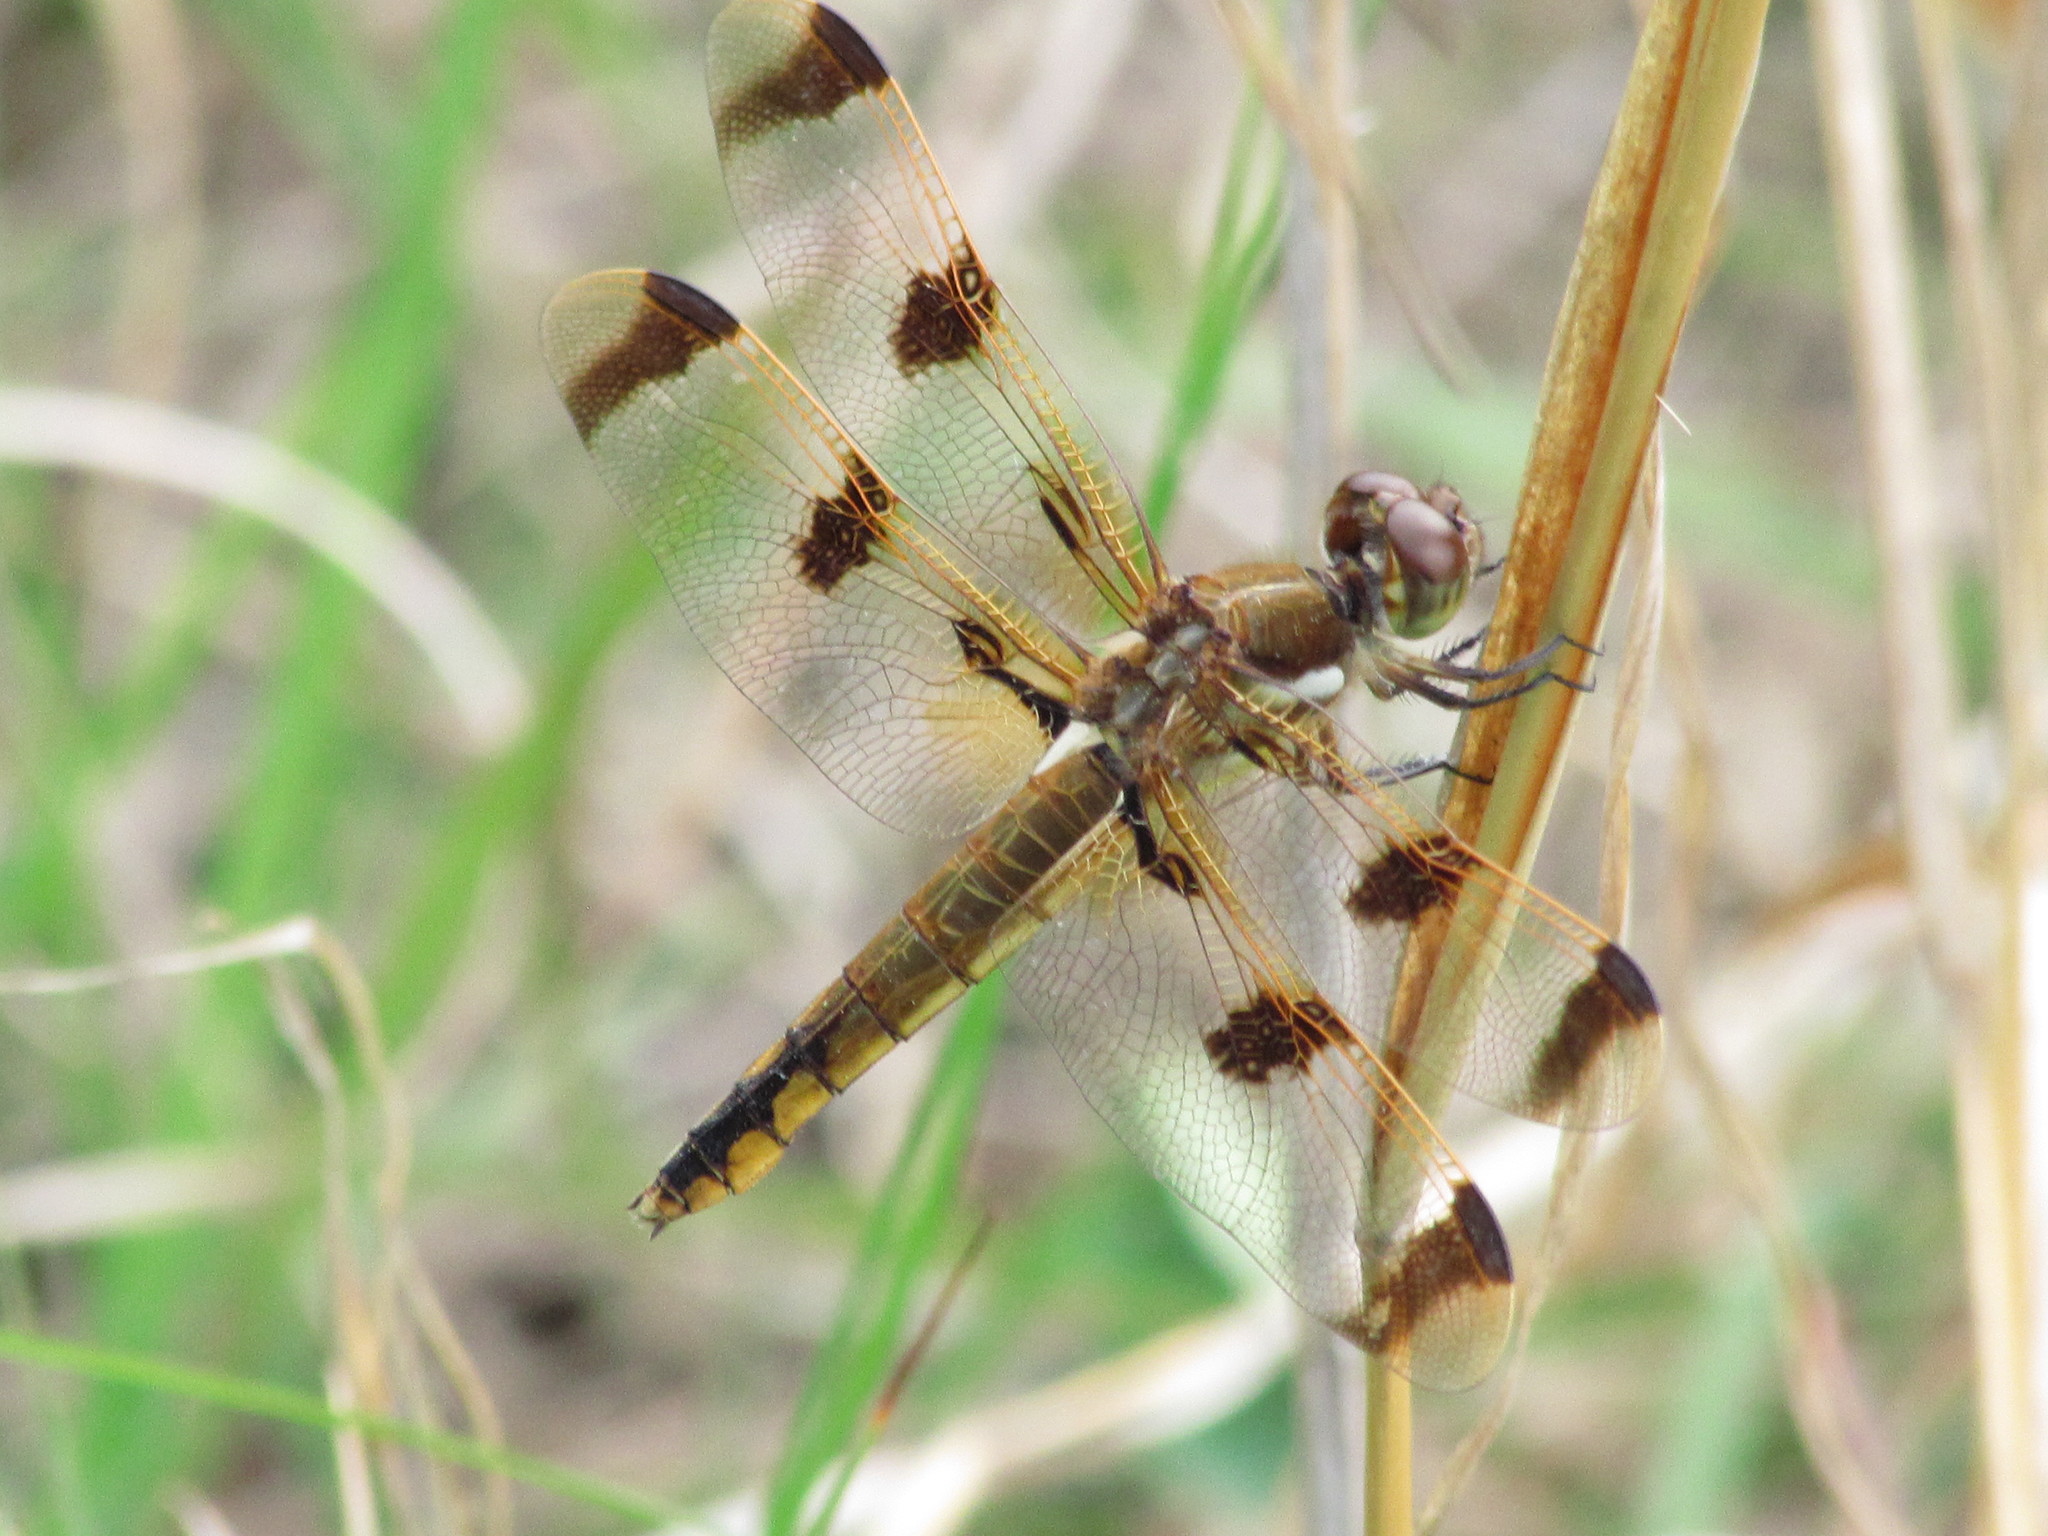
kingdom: Animalia
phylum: Arthropoda
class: Insecta
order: Odonata
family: Libellulidae
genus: Libellula
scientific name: Libellula semifasciata
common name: Painted skimmer
